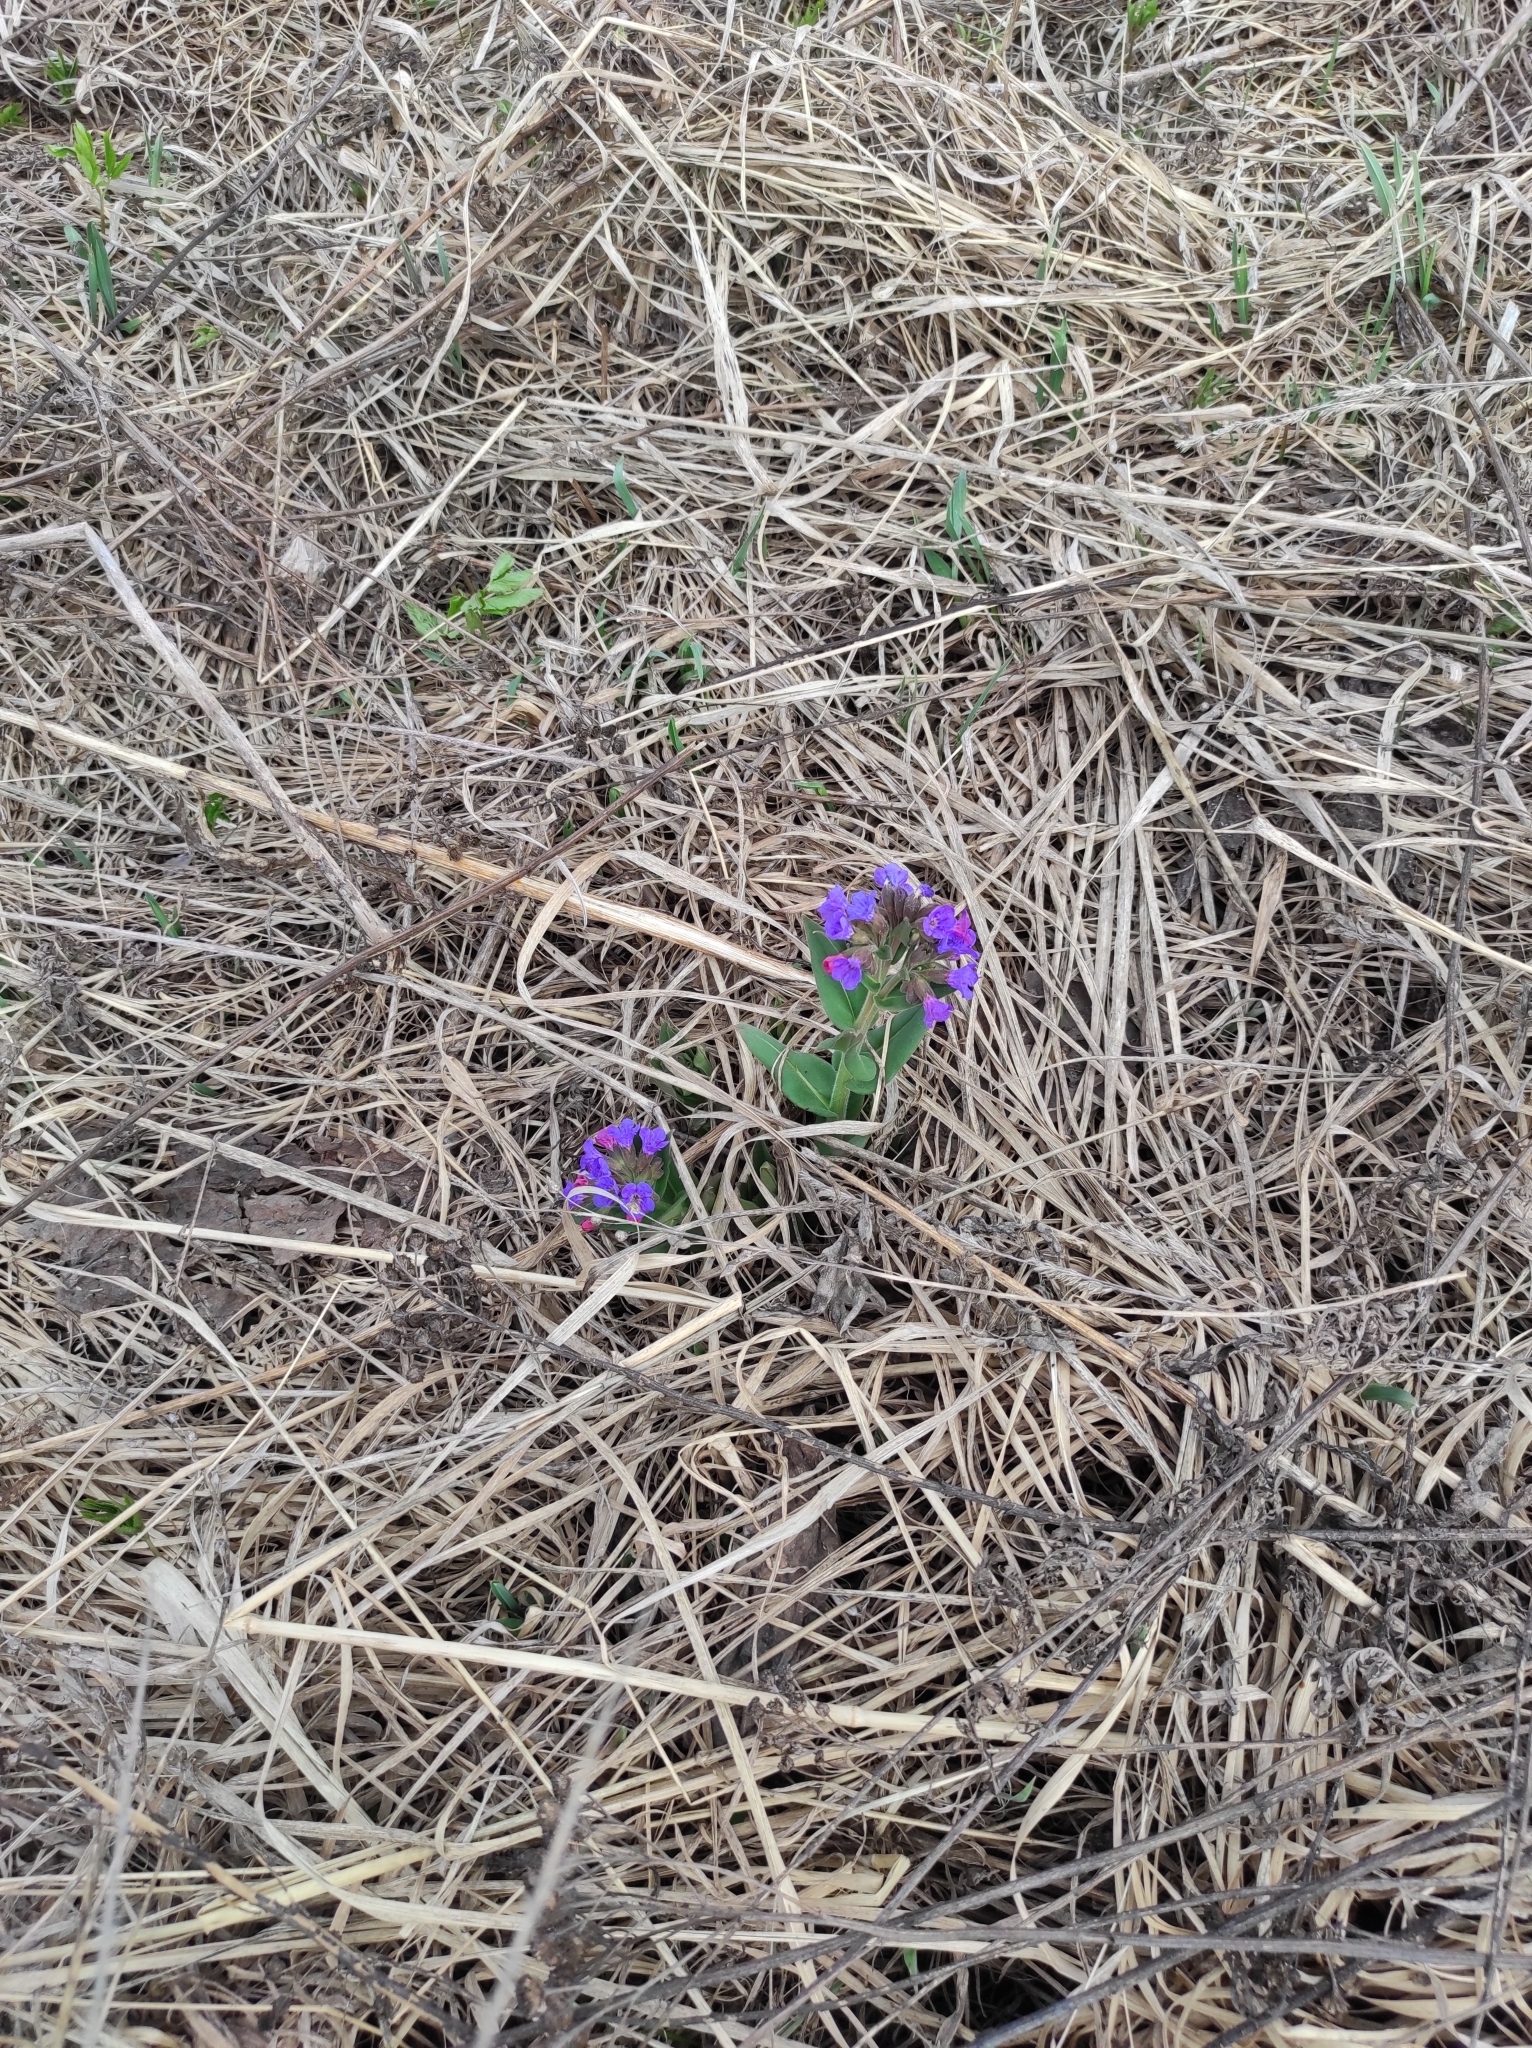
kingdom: Plantae
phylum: Tracheophyta
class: Magnoliopsida
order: Boraginales
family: Boraginaceae
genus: Pulmonaria
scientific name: Pulmonaria mollis
